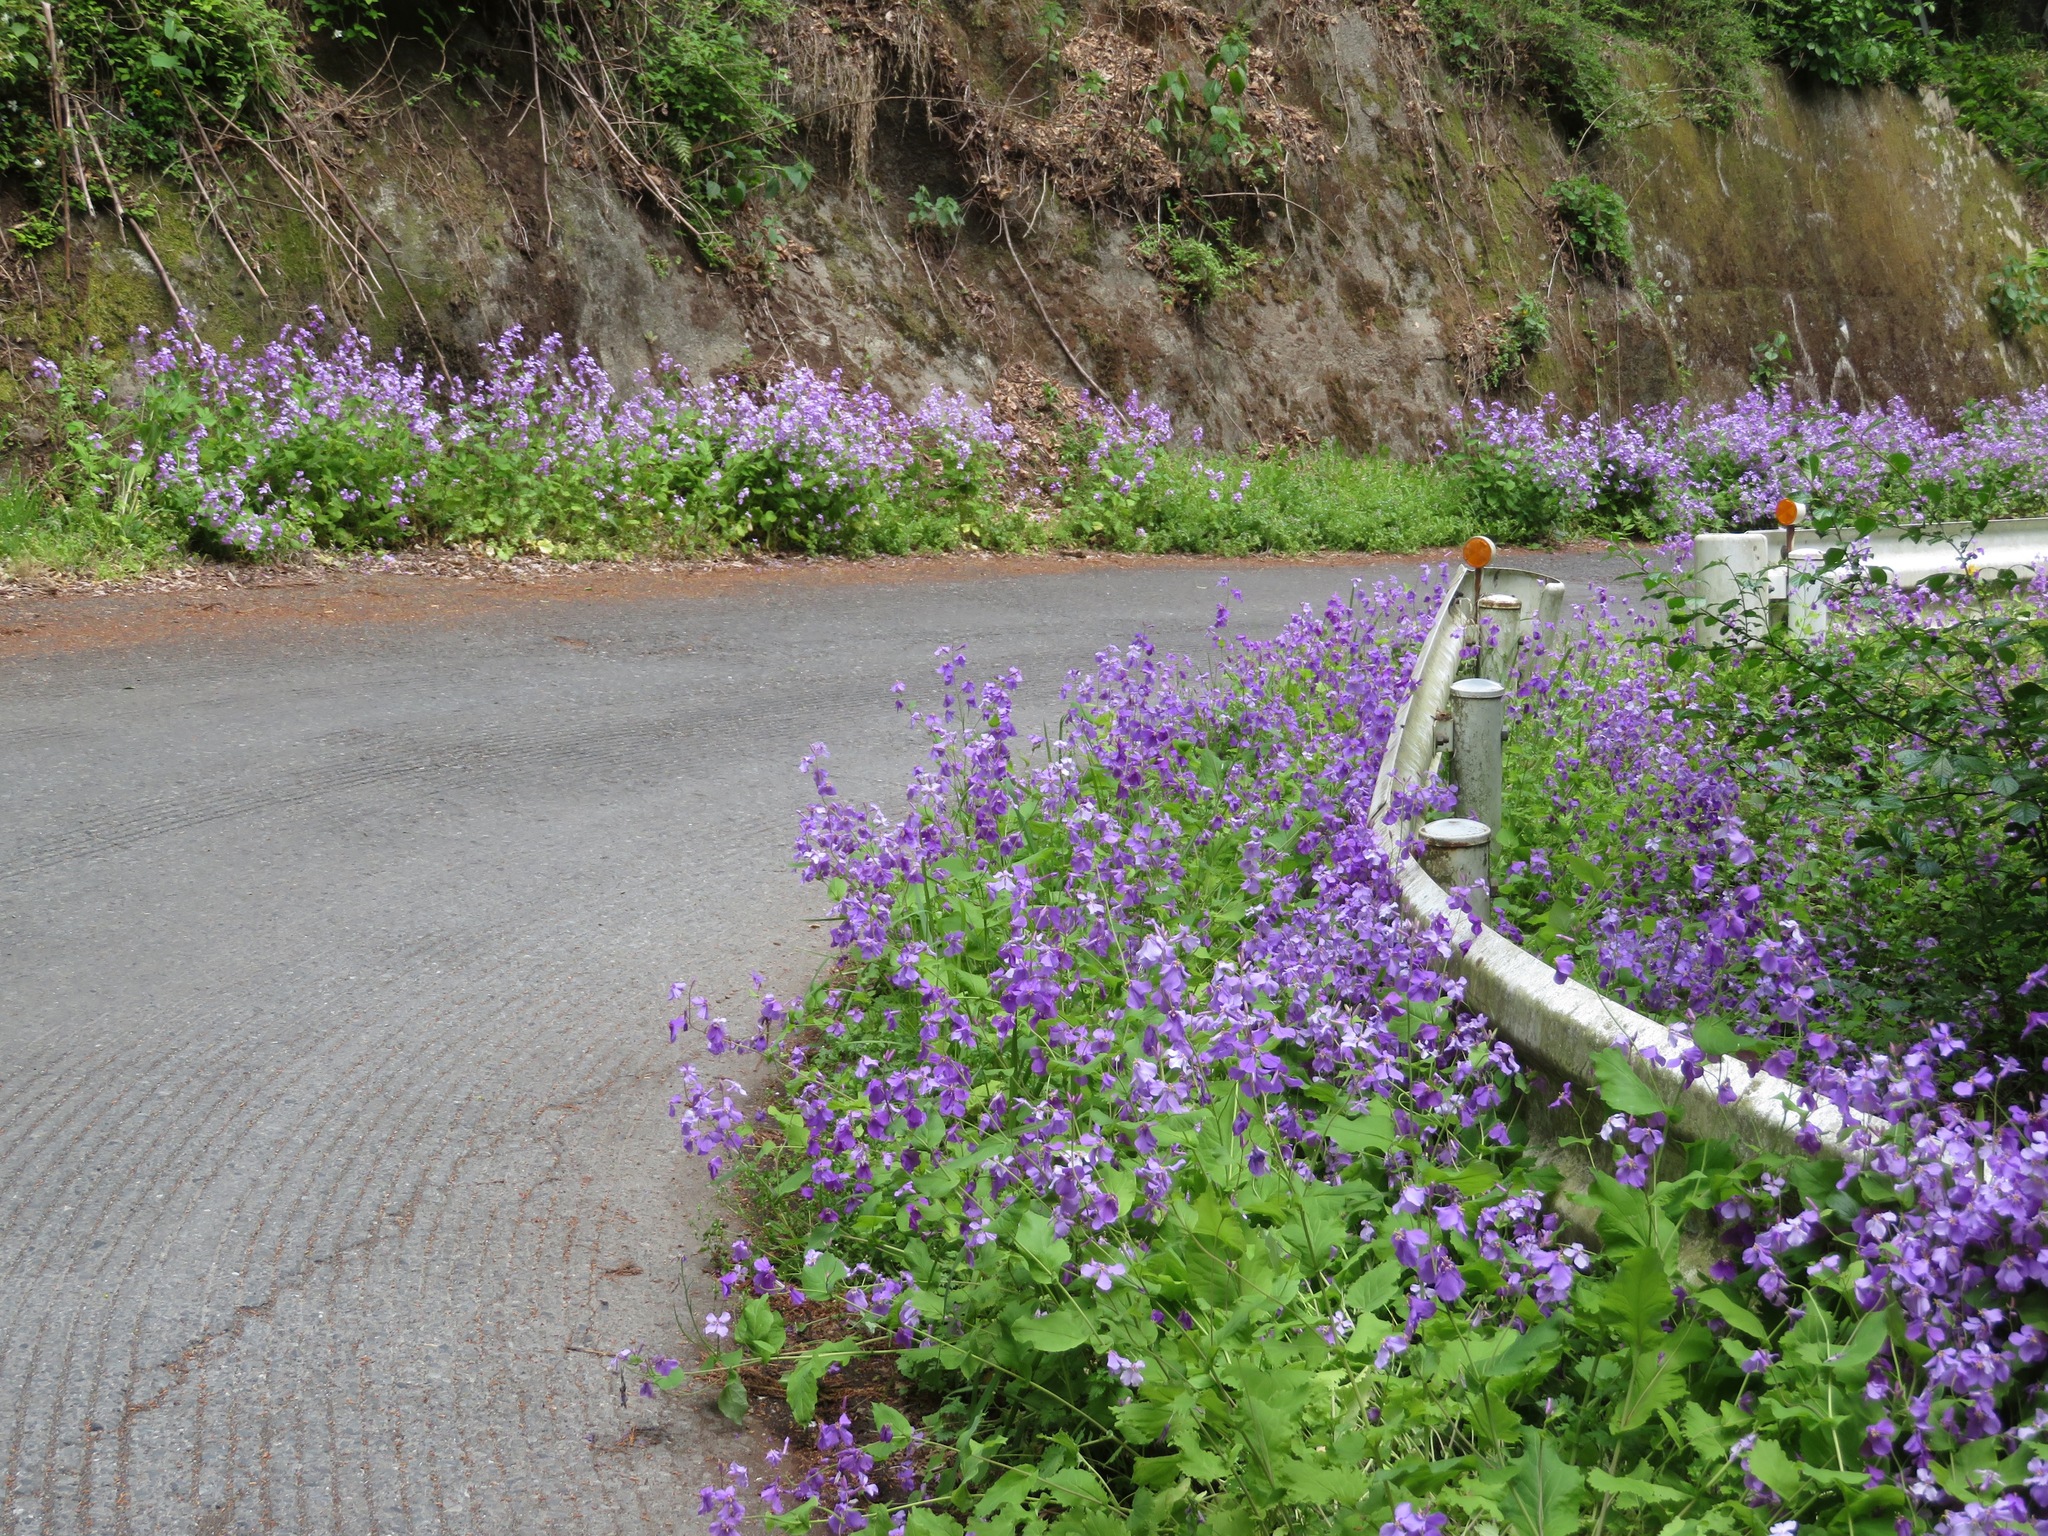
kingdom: Plantae
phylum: Tracheophyta
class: Magnoliopsida
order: Brassicales
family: Brassicaceae
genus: Orychophragmus
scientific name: Orychophragmus violaceus
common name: Mustard
